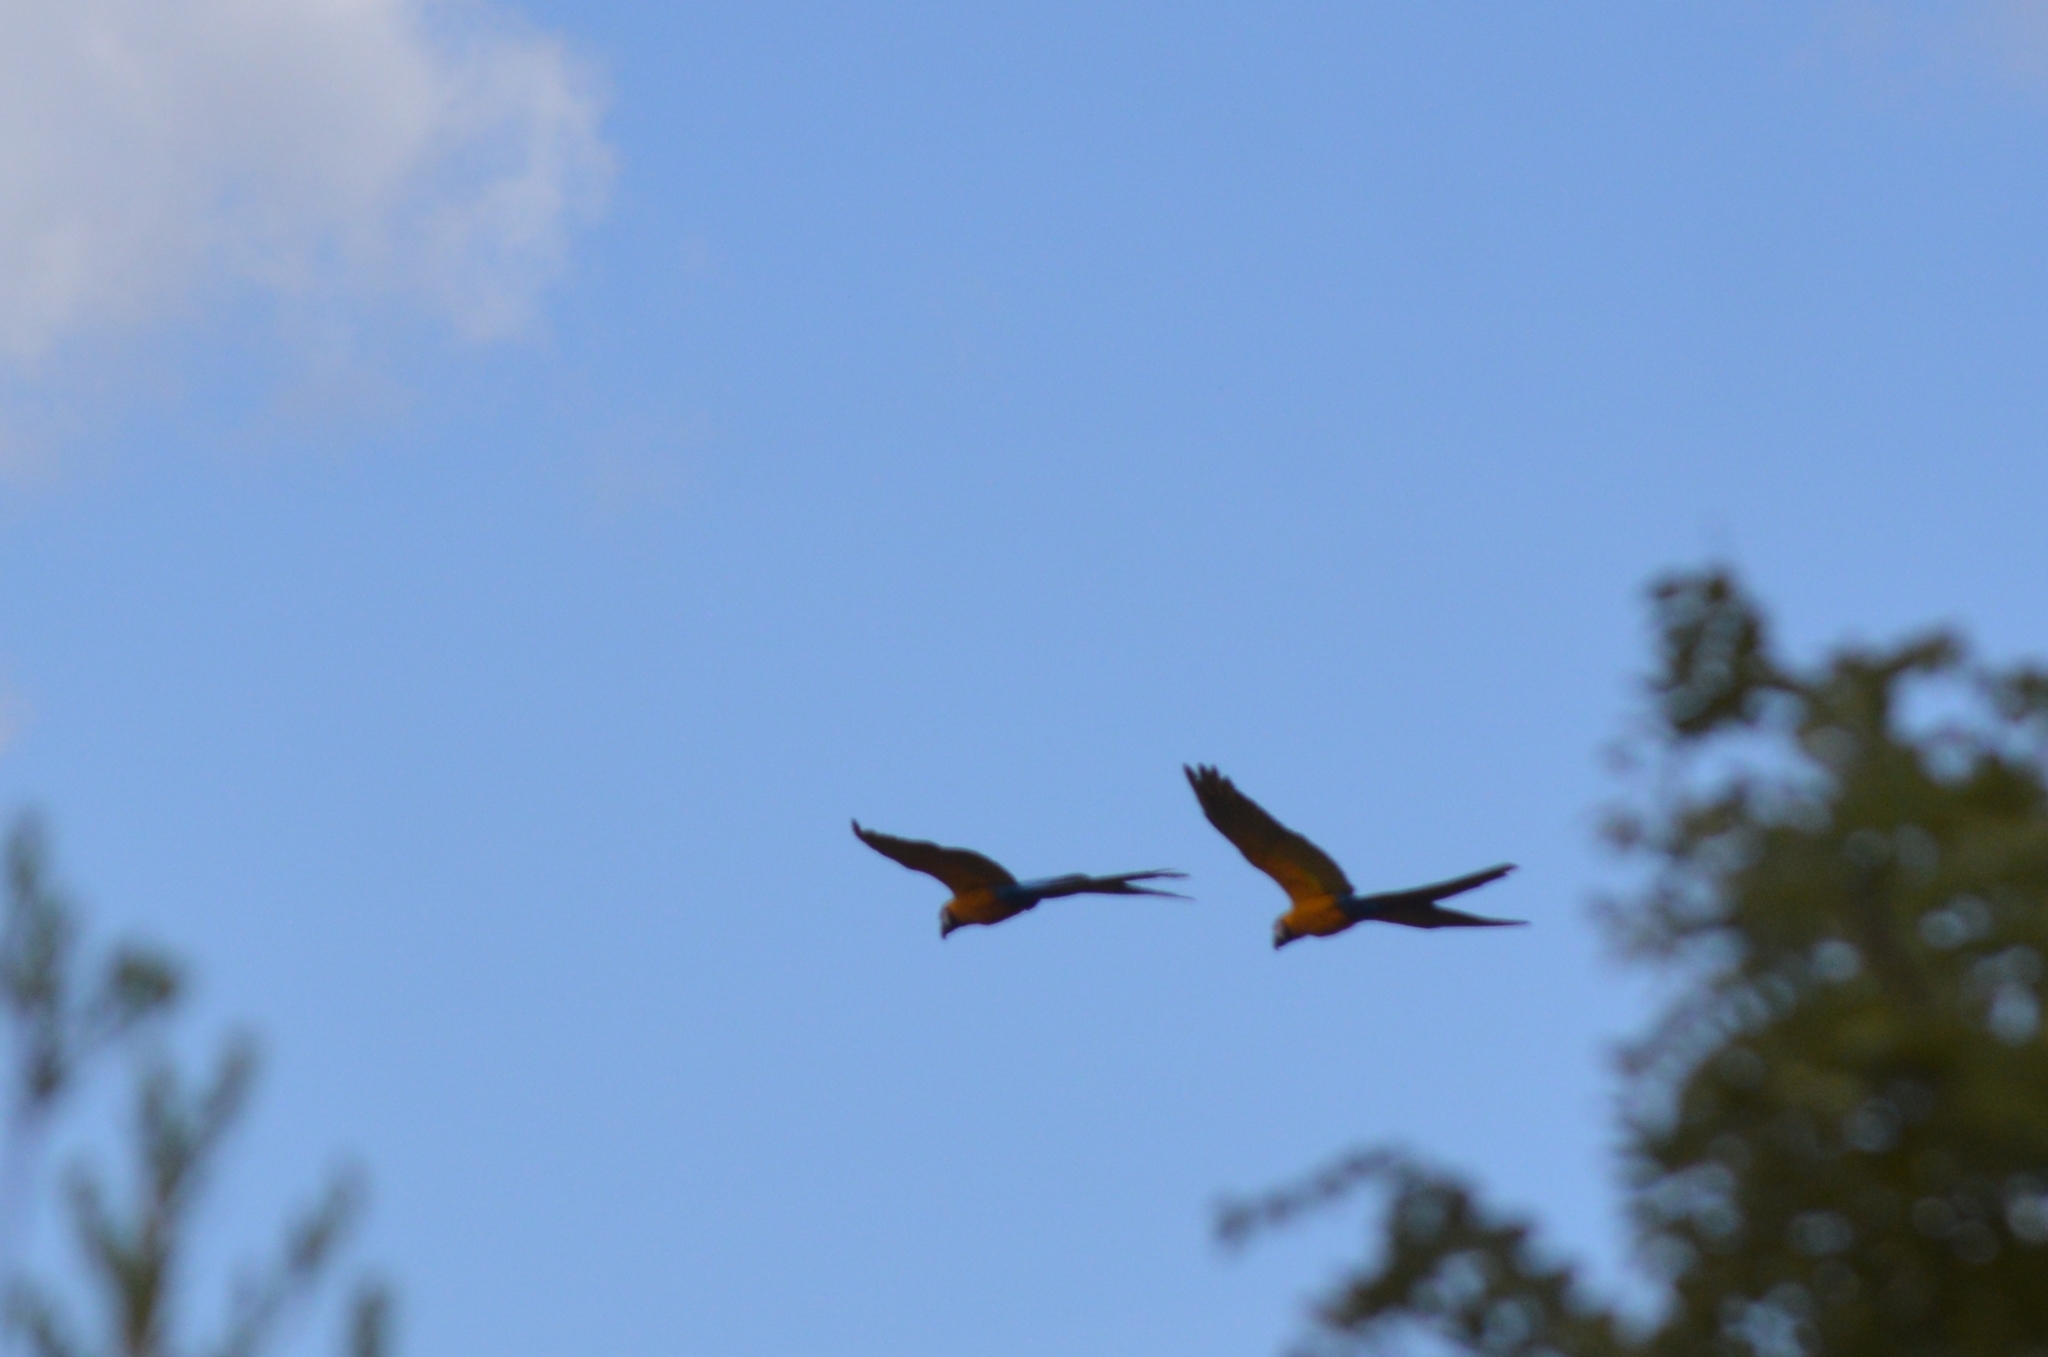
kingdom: Animalia
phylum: Chordata
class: Aves
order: Psittaciformes
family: Psittacidae
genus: Ara
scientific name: Ara ararauna
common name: Blue-and-yellow macaw
